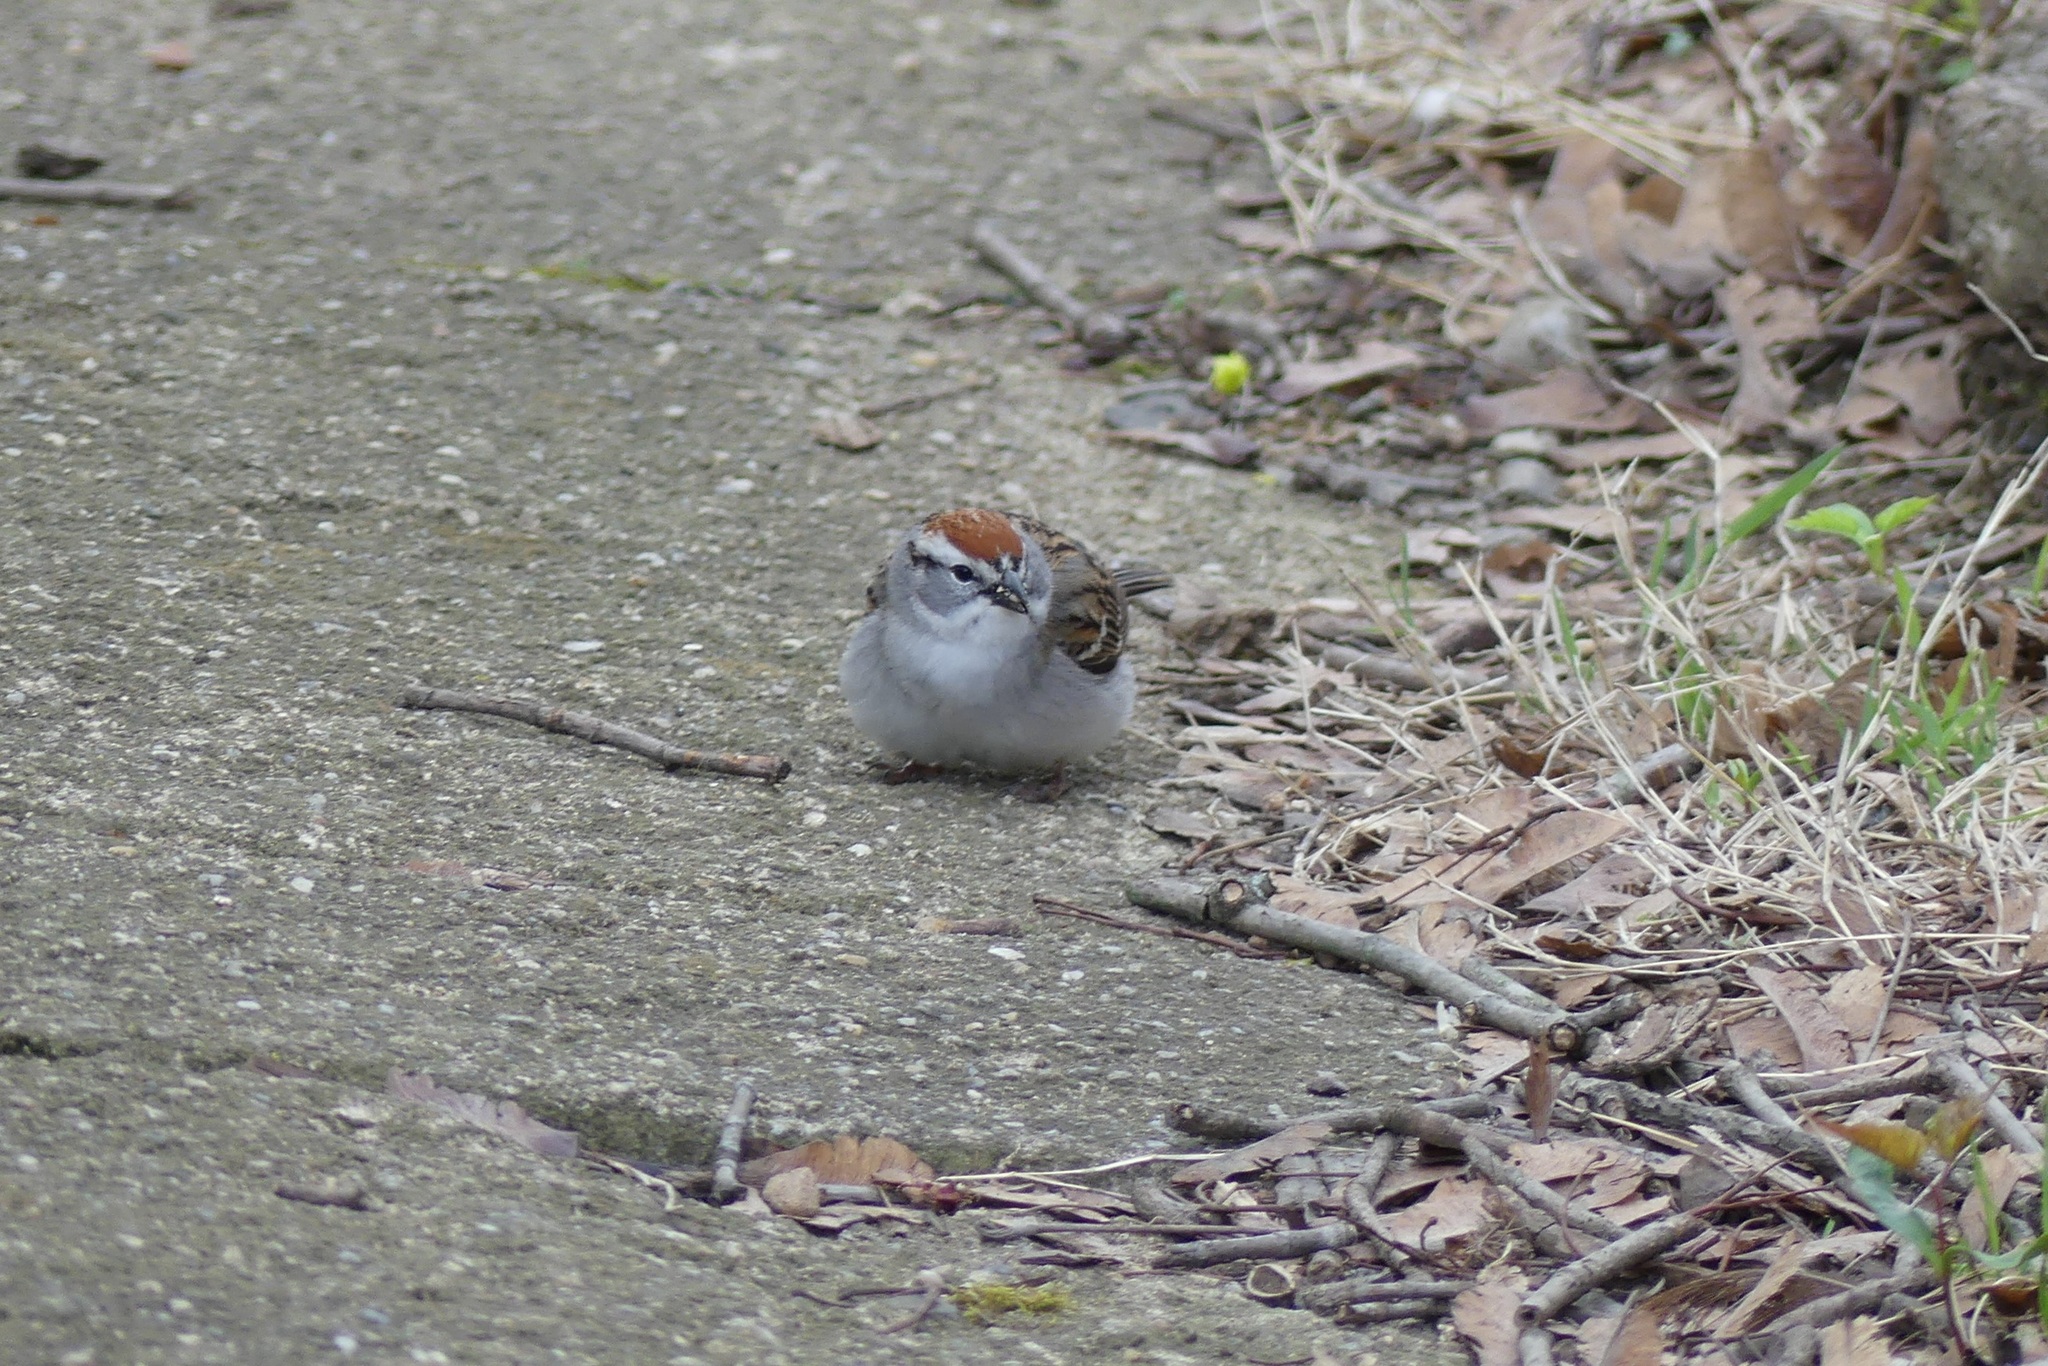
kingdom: Animalia
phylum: Chordata
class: Aves
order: Passeriformes
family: Passerellidae
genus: Spizella
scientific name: Spizella passerina
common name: Chipping sparrow
